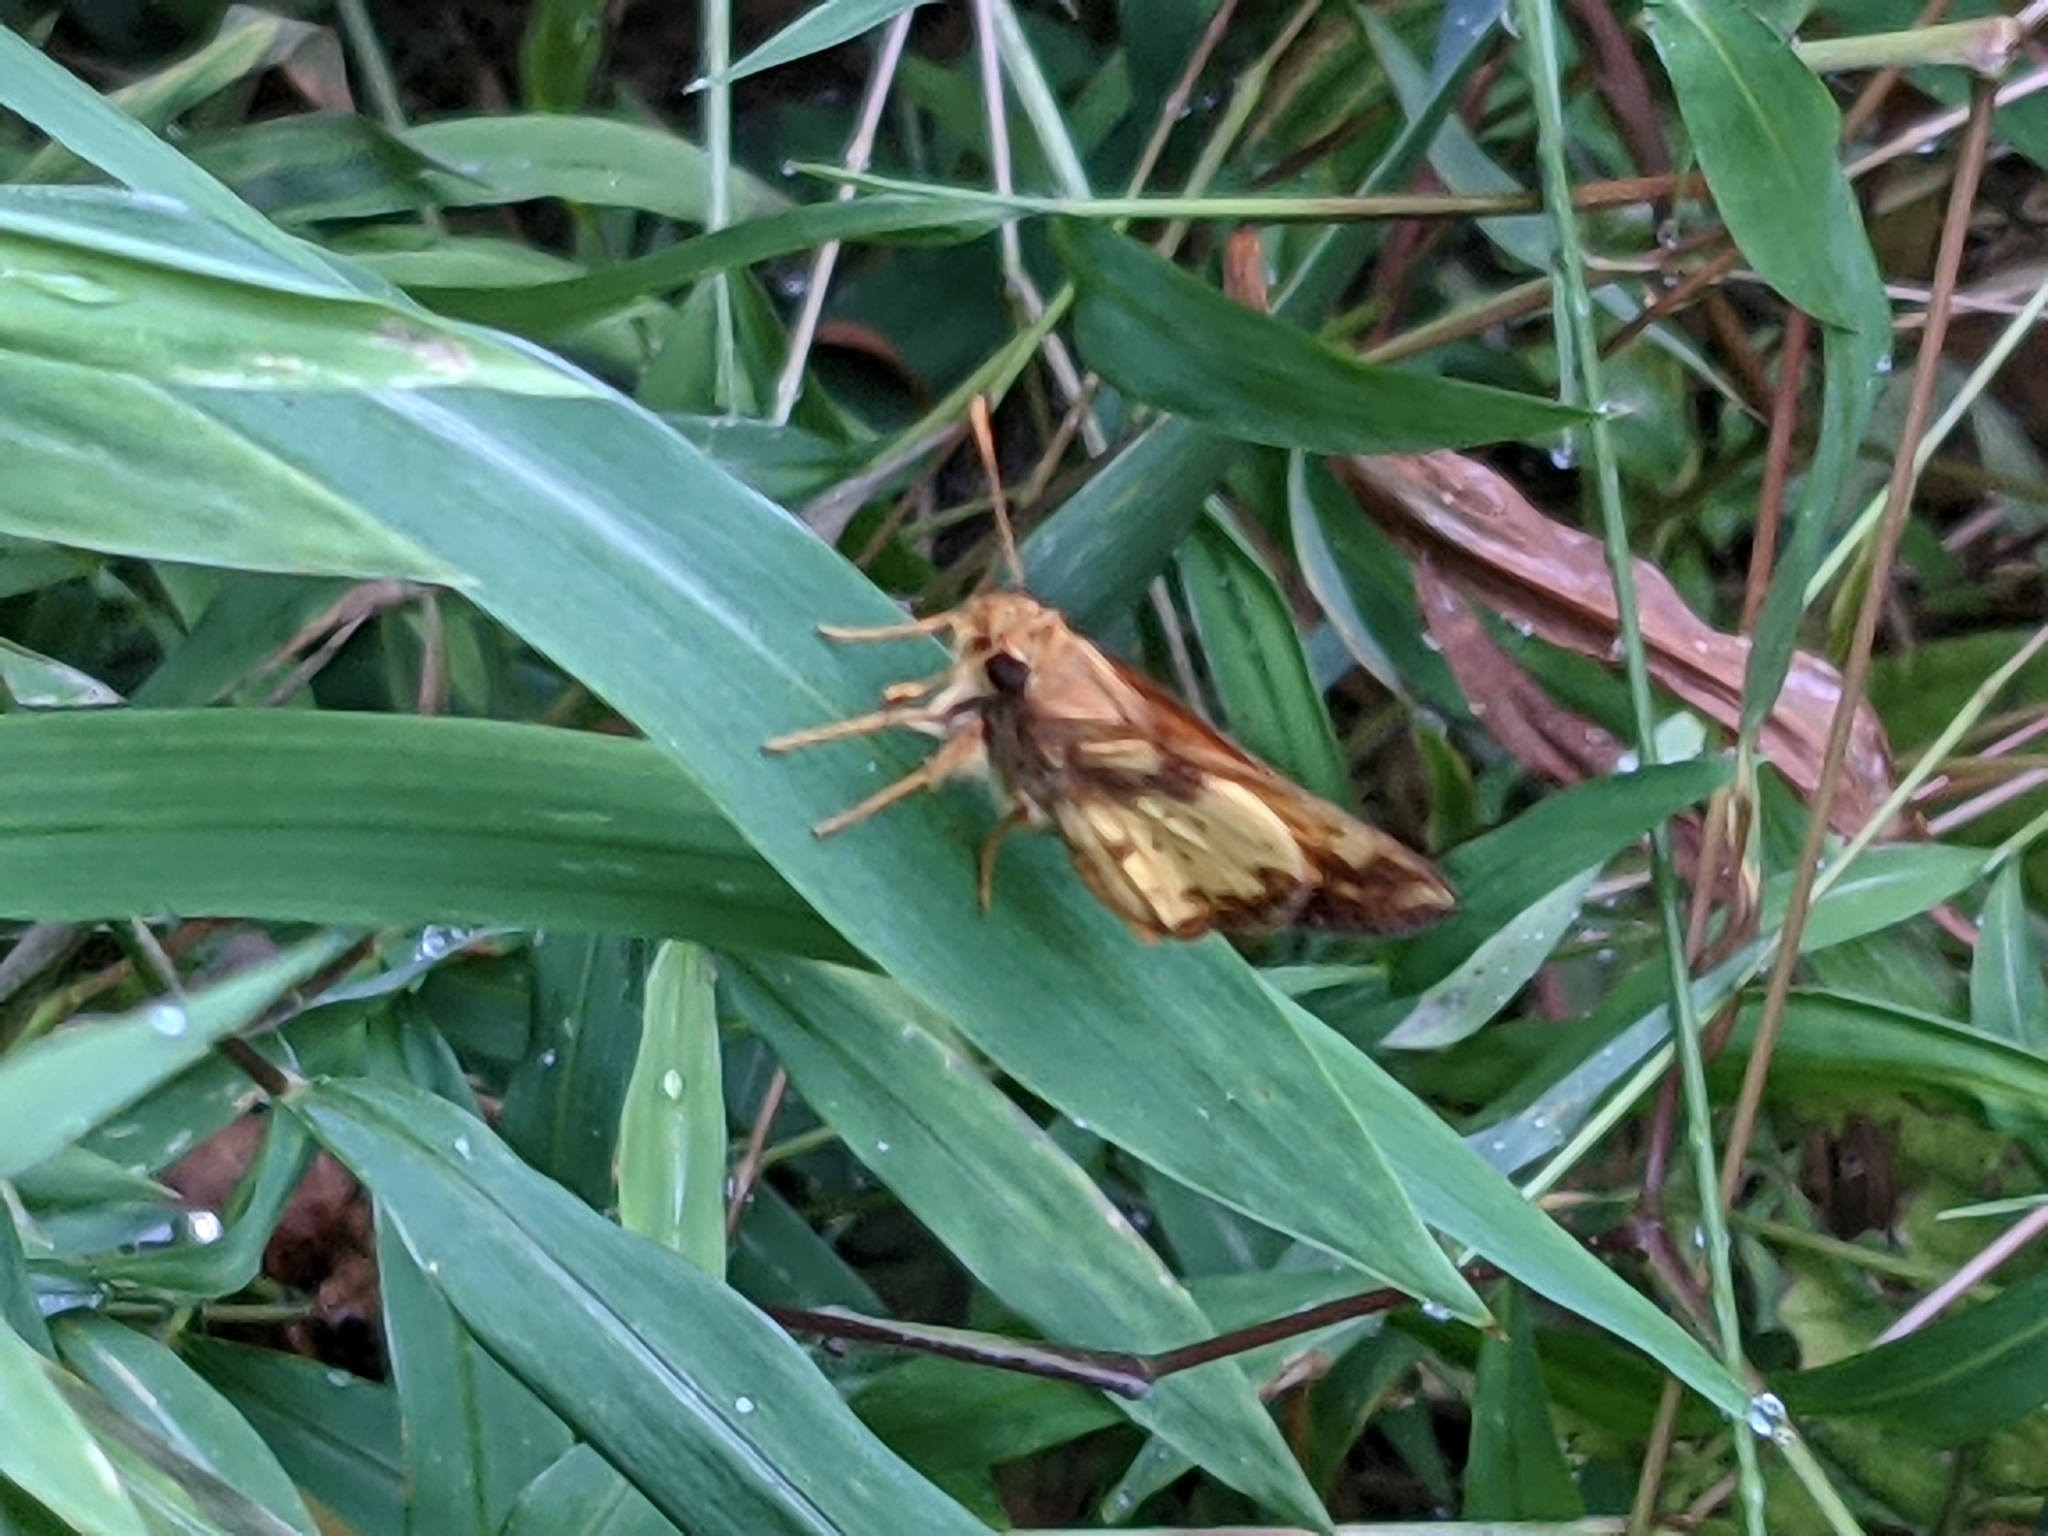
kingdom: Animalia
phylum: Arthropoda
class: Insecta
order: Lepidoptera
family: Hesperiidae
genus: Lon
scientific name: Lon zabulon
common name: Zabulon skipper
